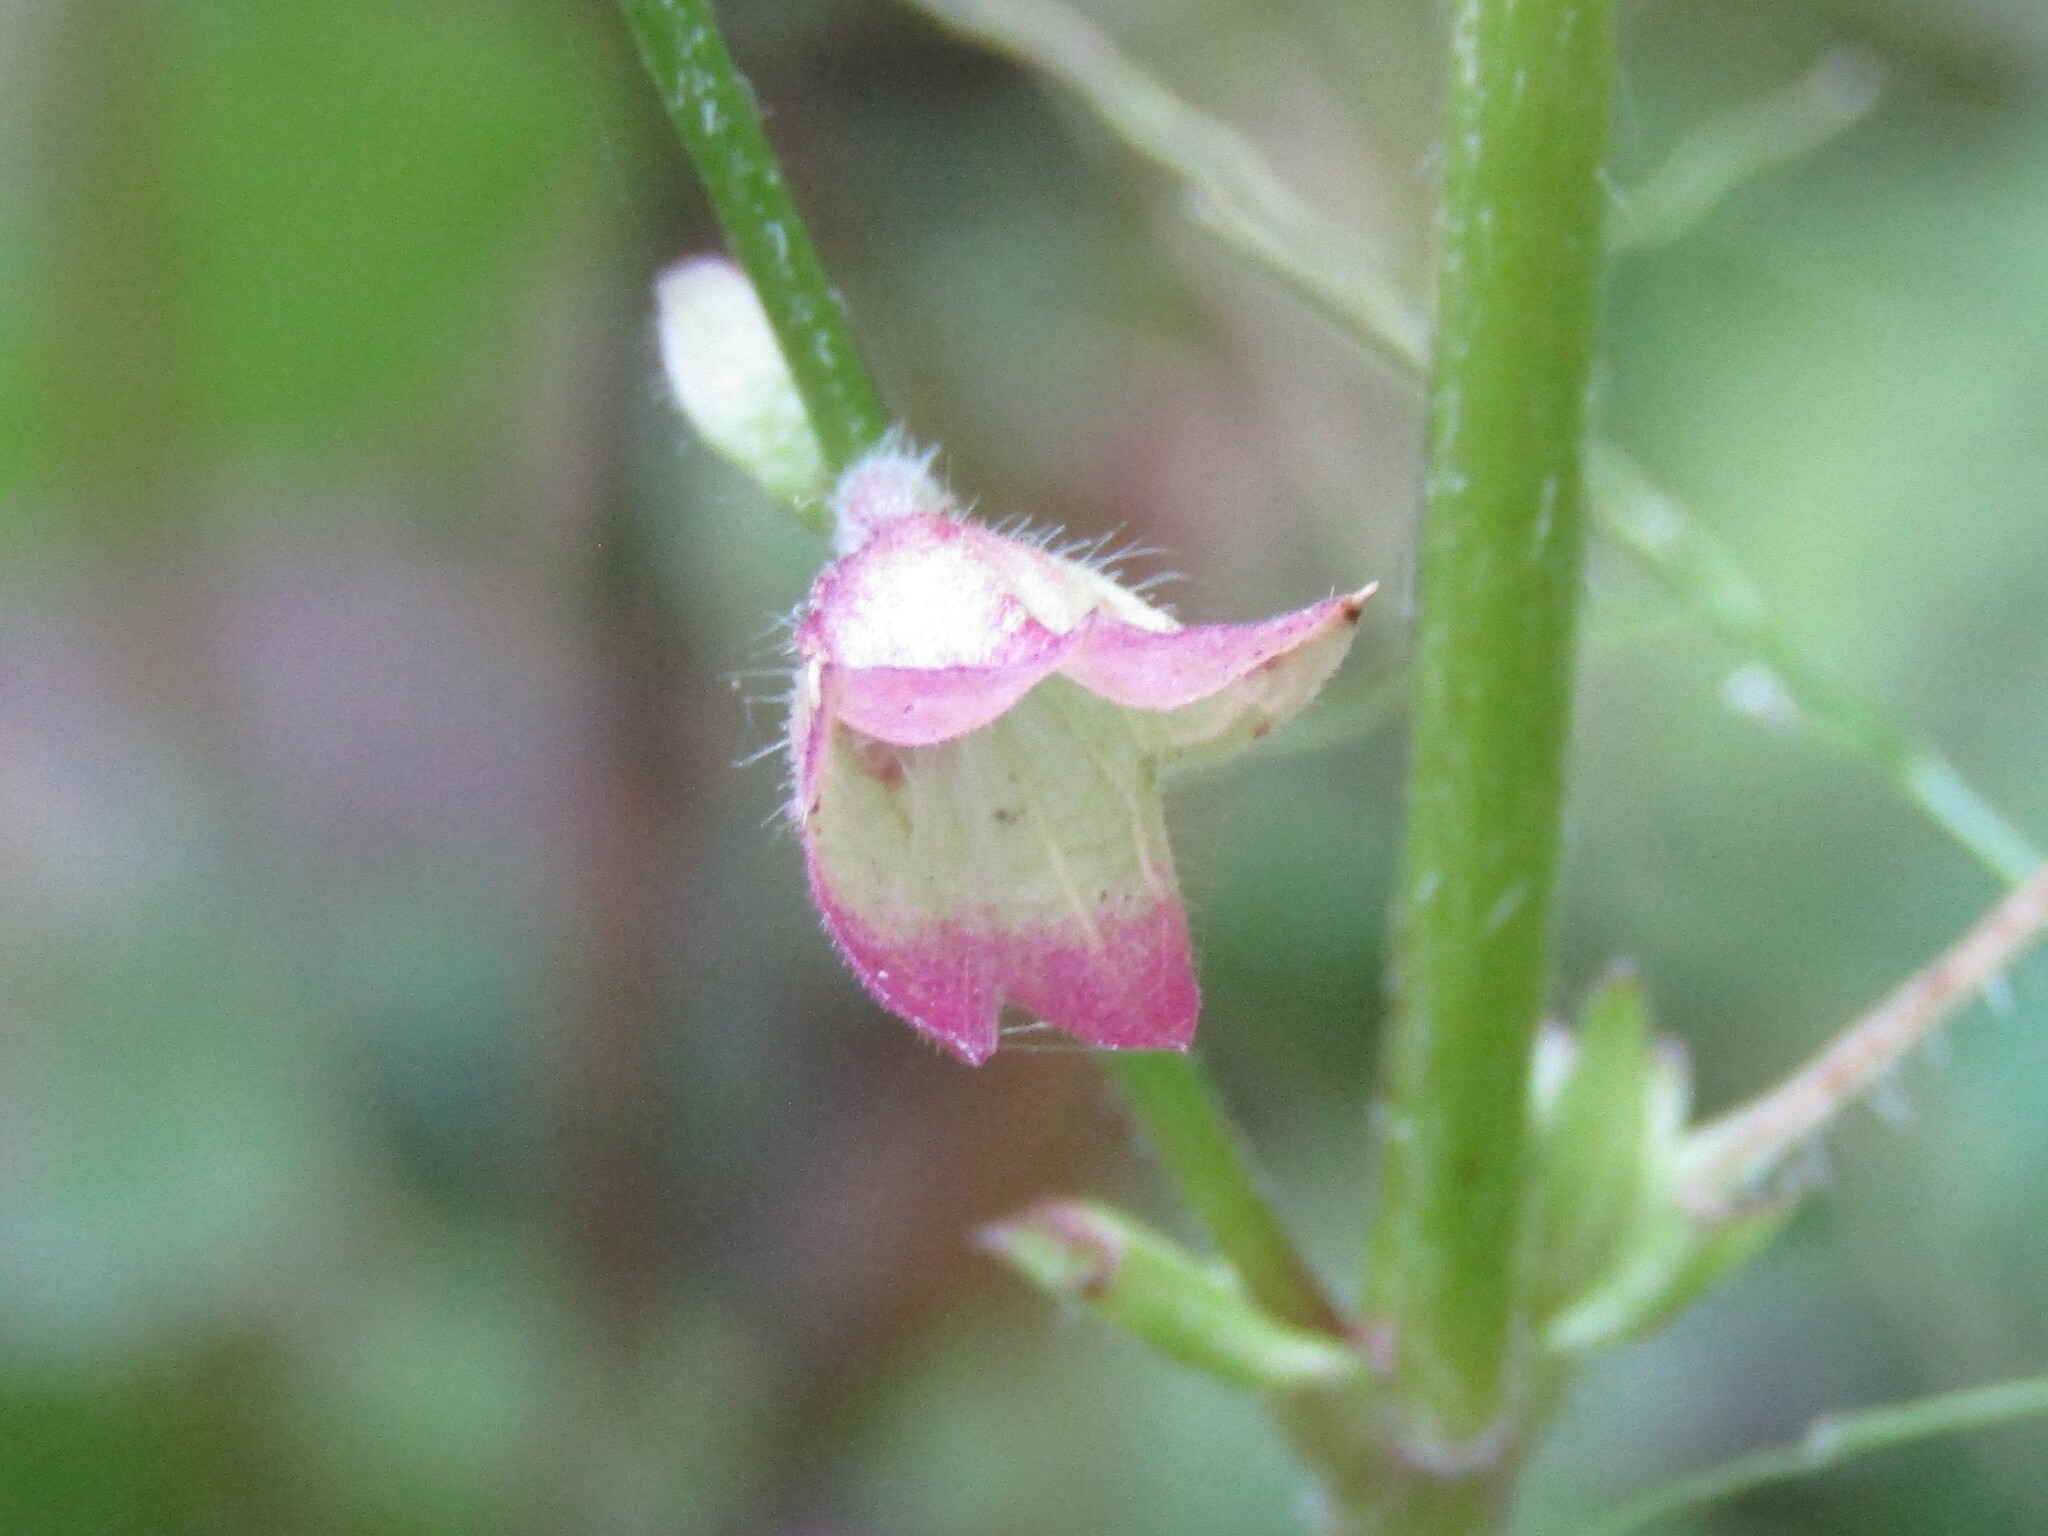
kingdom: Plantae
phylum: Tracheophyta
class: Magnoliopsida
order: Lamiales
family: Lamiaceae
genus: Salvia
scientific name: Salvia lyrata
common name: Cancerweed
